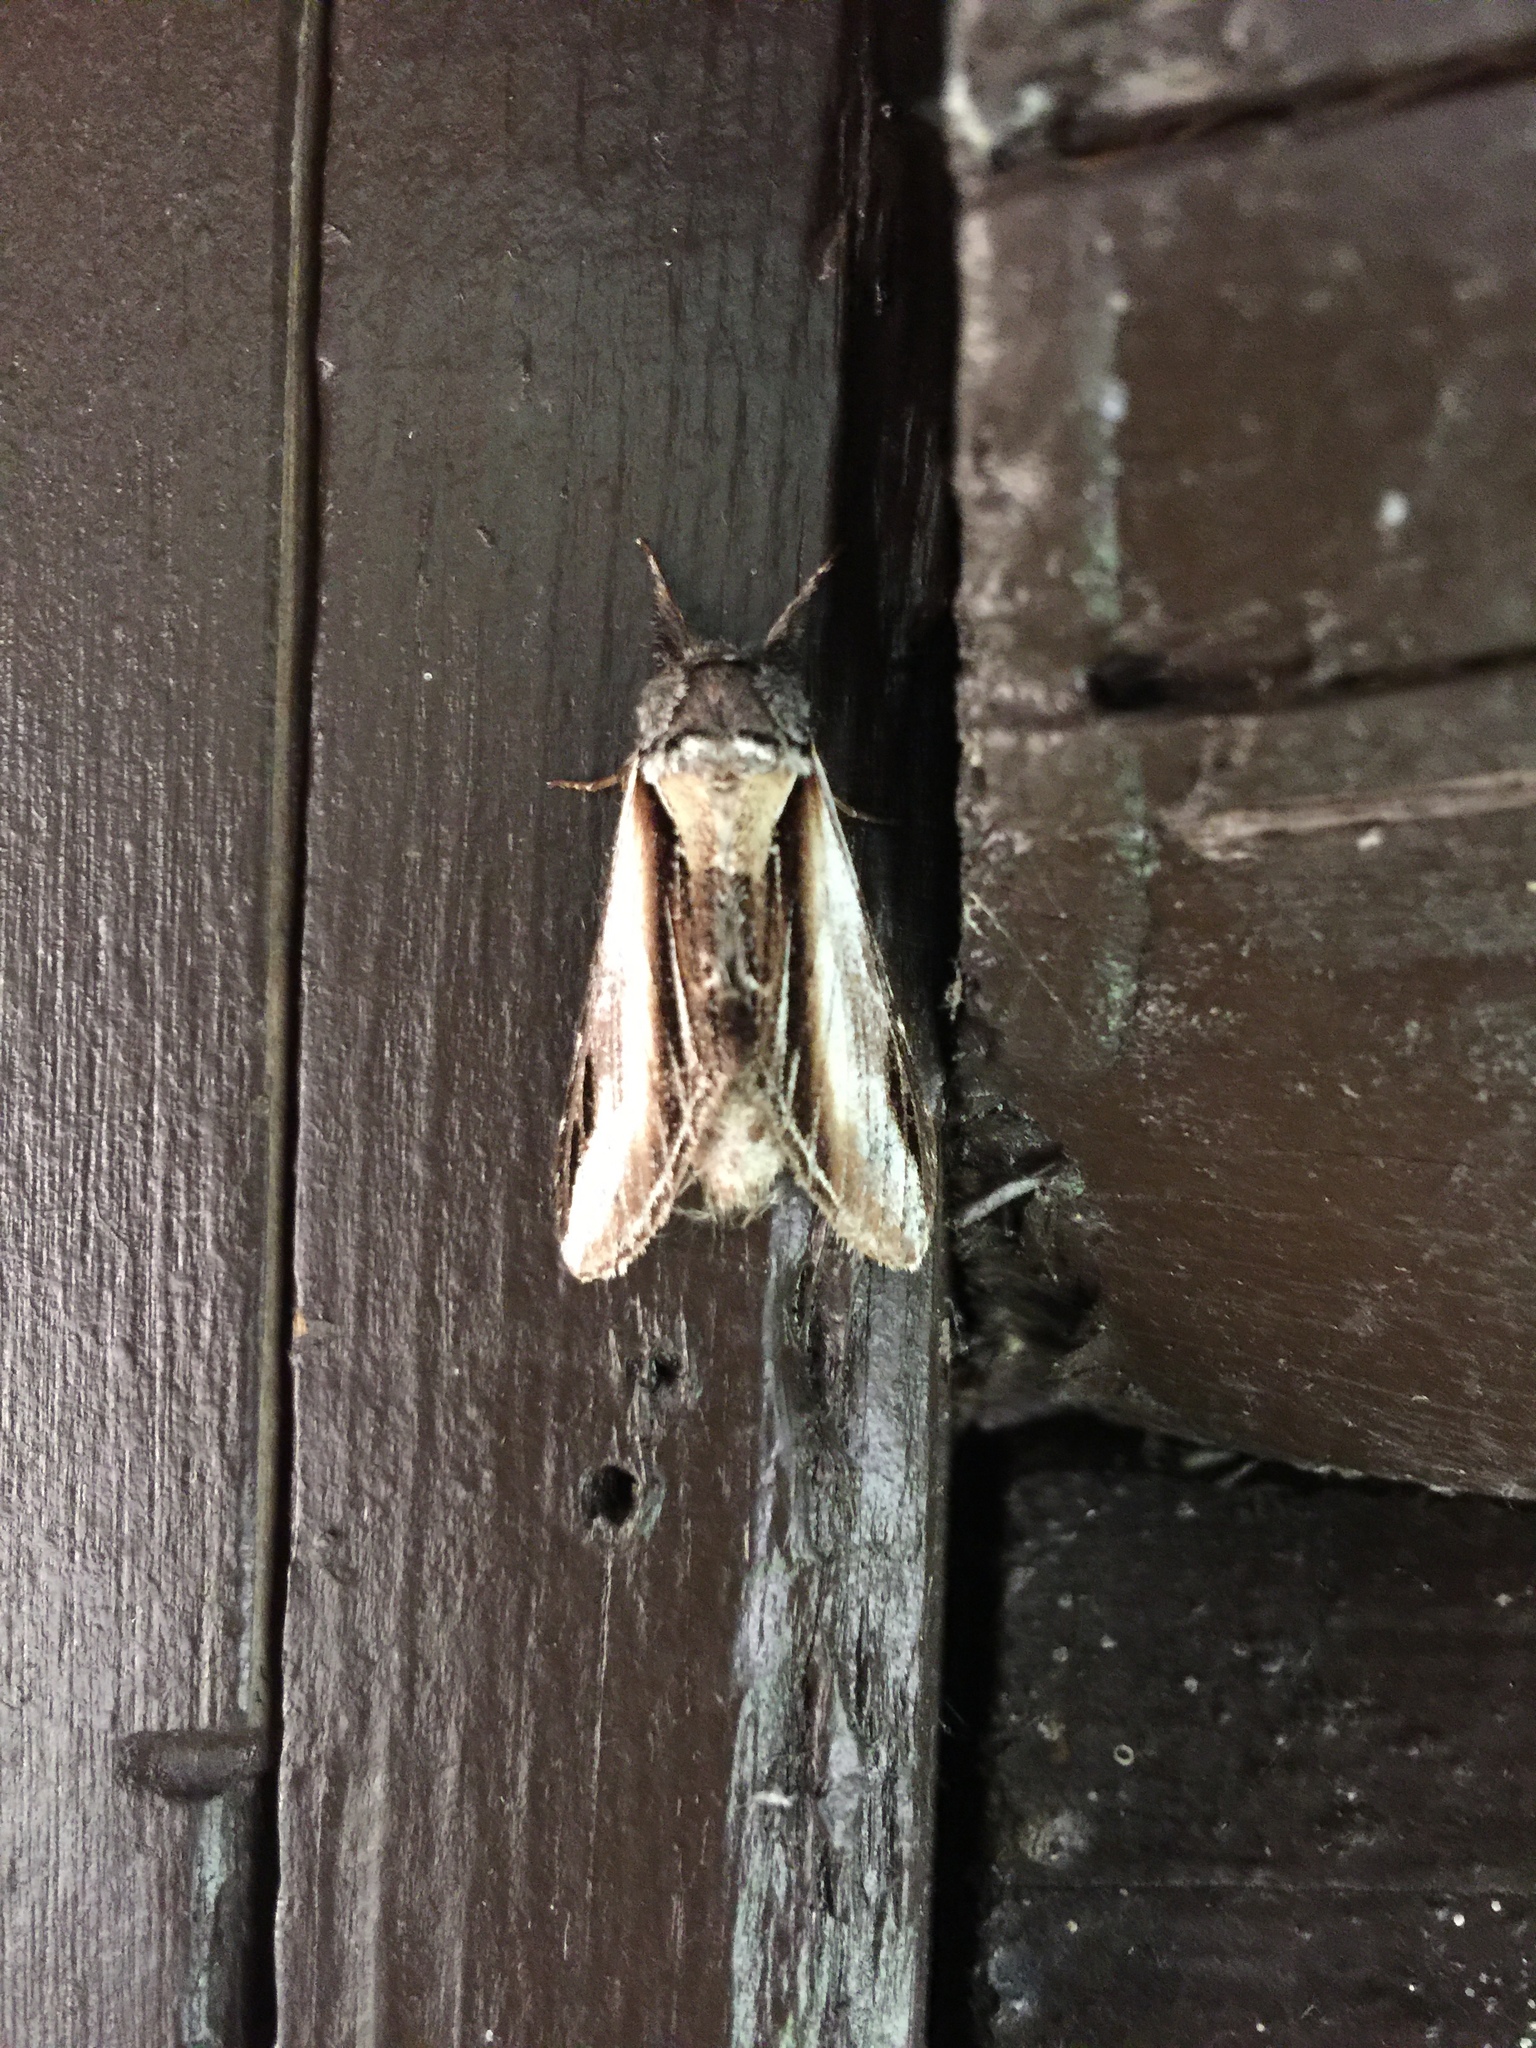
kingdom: Animalia
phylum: Arthropoda
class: Insecta
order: Lepidoptera
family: Notodontidae
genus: Pheosia
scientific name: Pheosia rimosa
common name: Black-rimmed prominent
